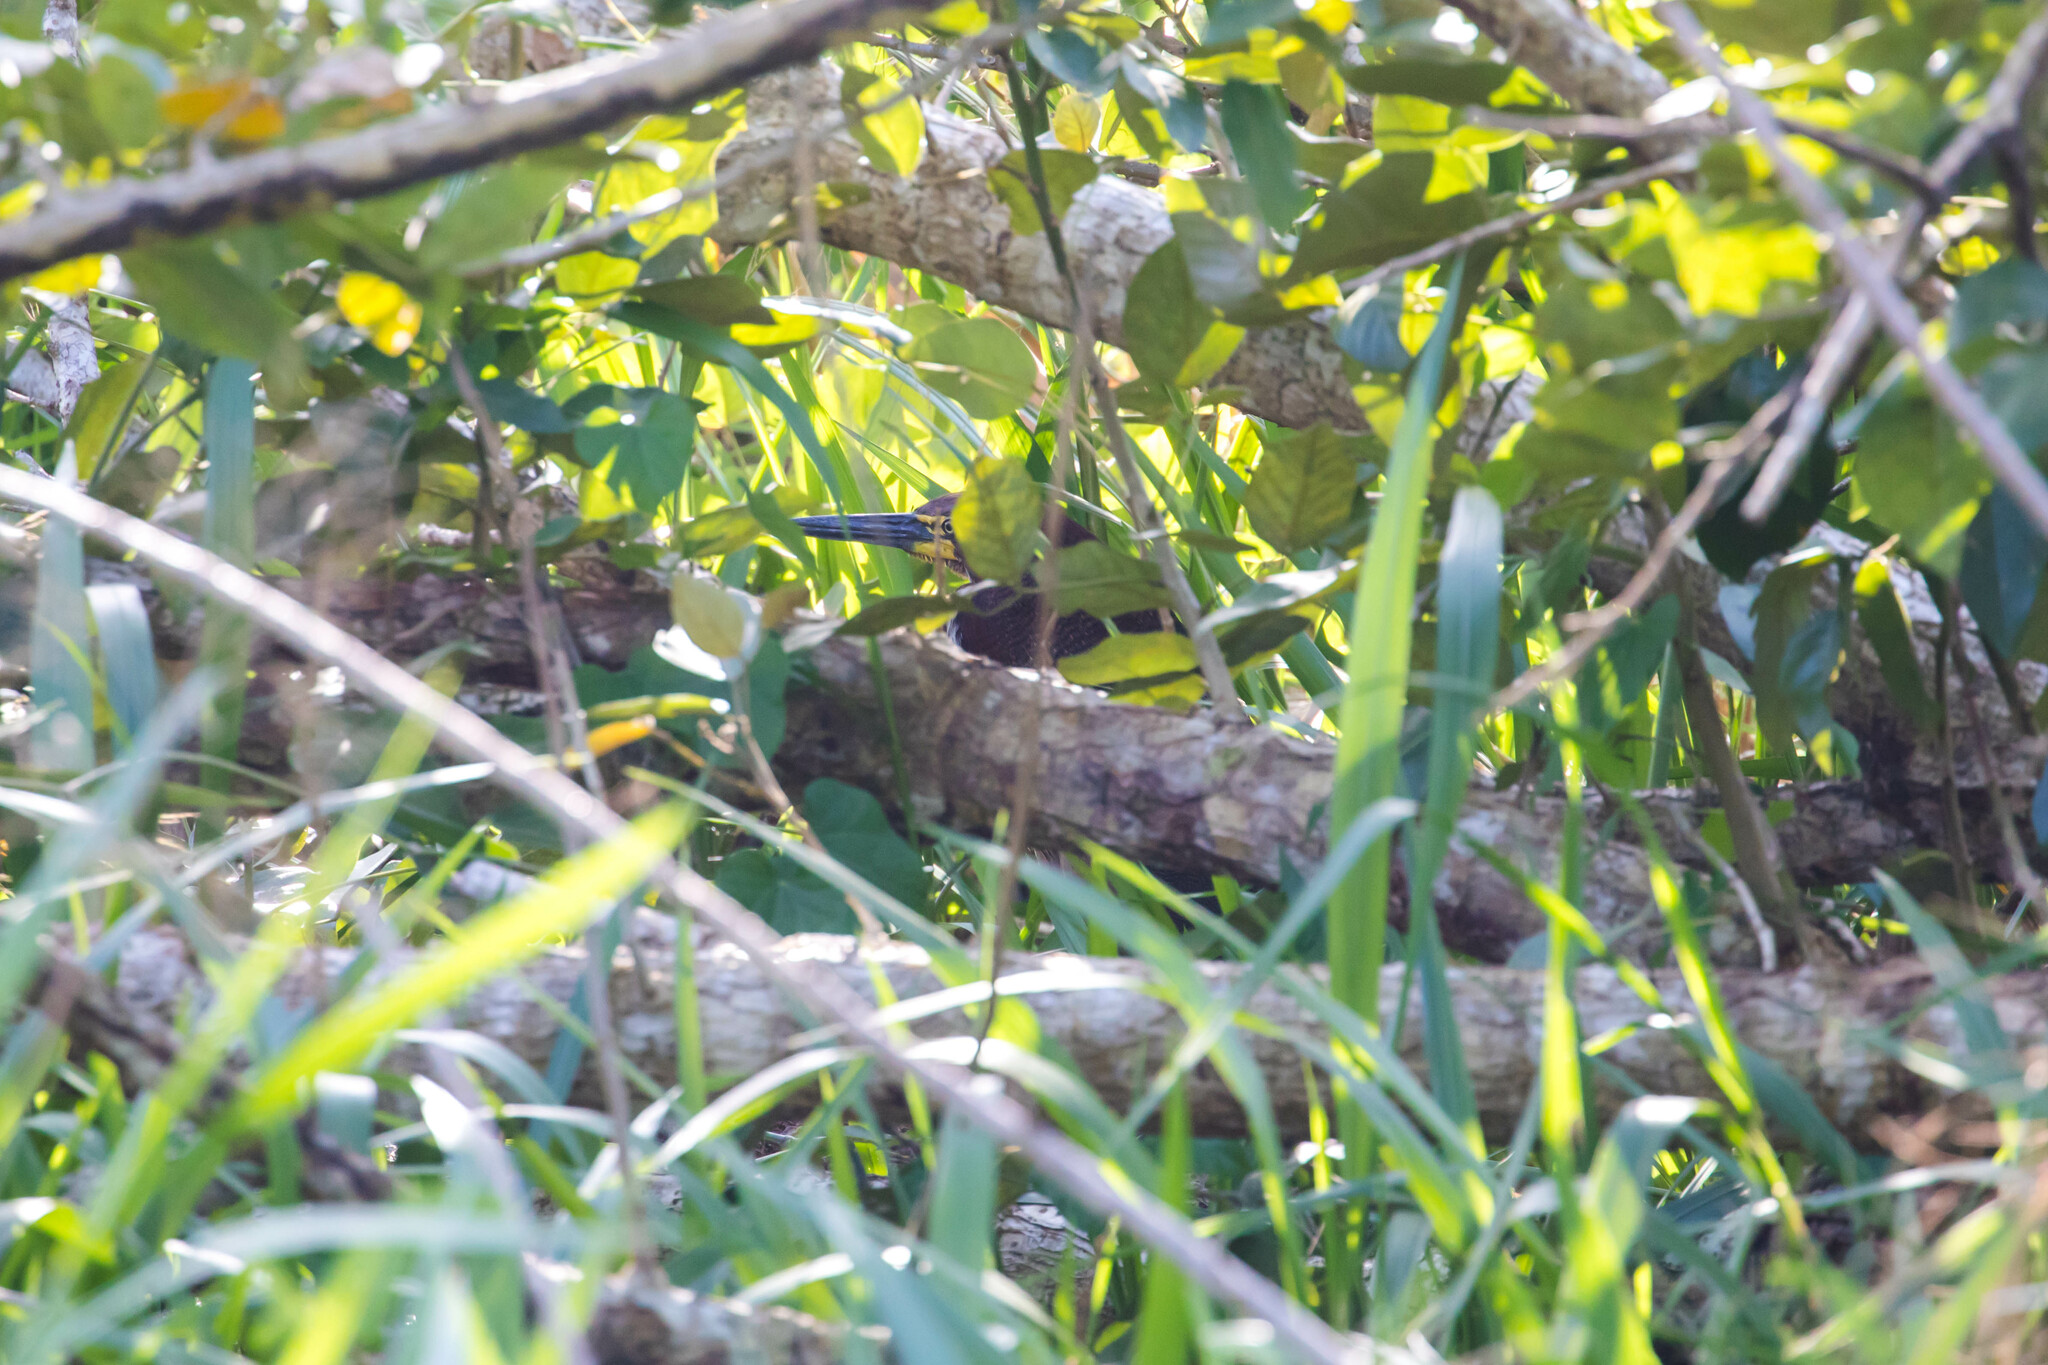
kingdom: Animalia
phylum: Chordata
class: Aves
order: Pelecaniformes
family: Ardeidae
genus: Tigrisoma
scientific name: Tigrisoma lineatum
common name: Rufescent tiger-heron
